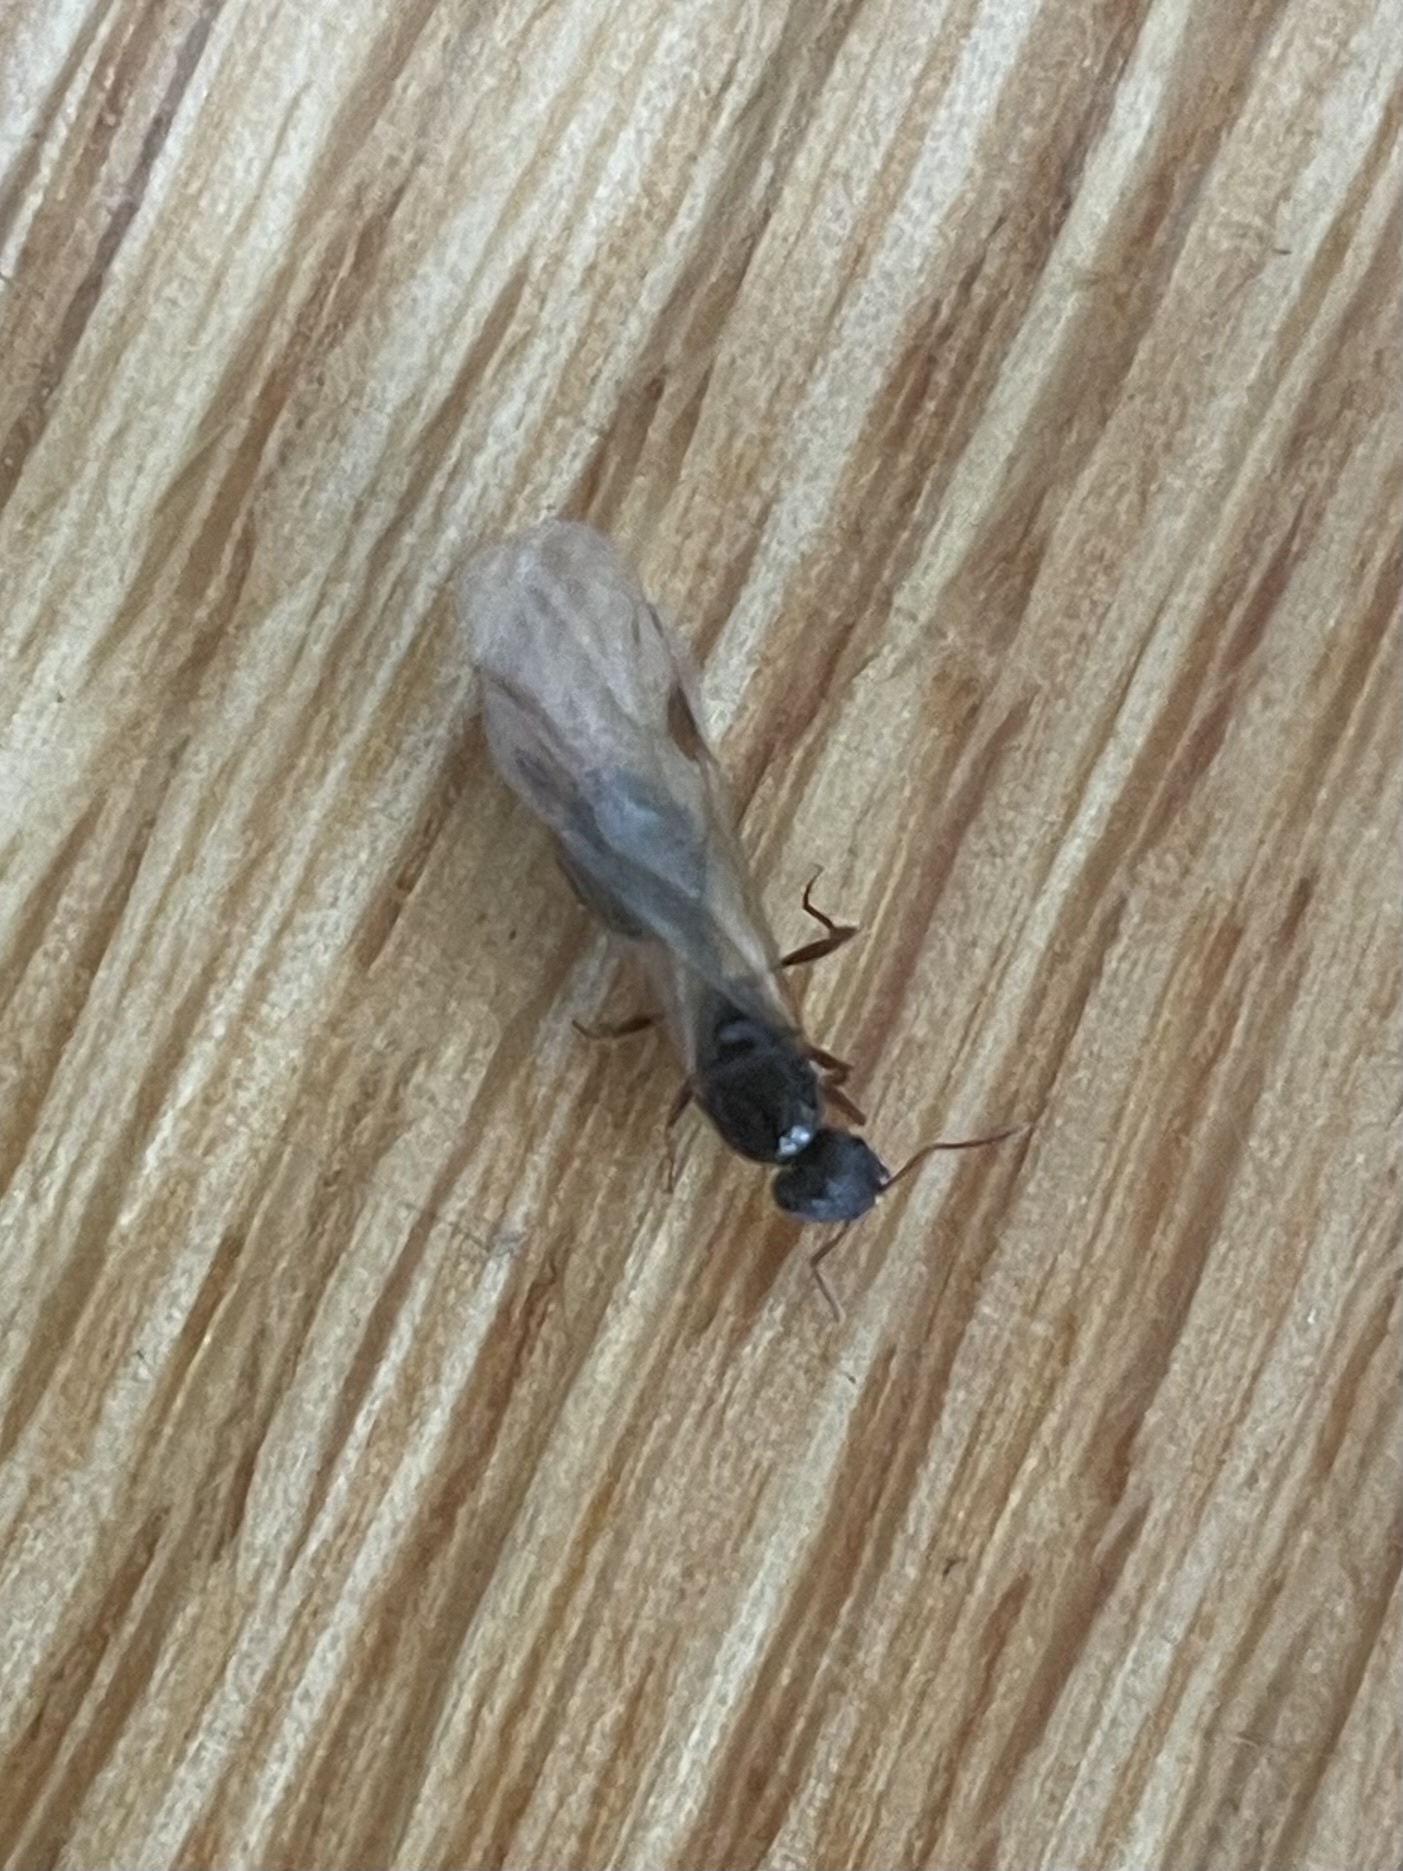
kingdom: Animalia
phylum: Arthropoda
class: Insecta
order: Hymenoptera
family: Formicidae
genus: Tetramorium
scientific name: Tetramorium immigrans
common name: Pavement ant
